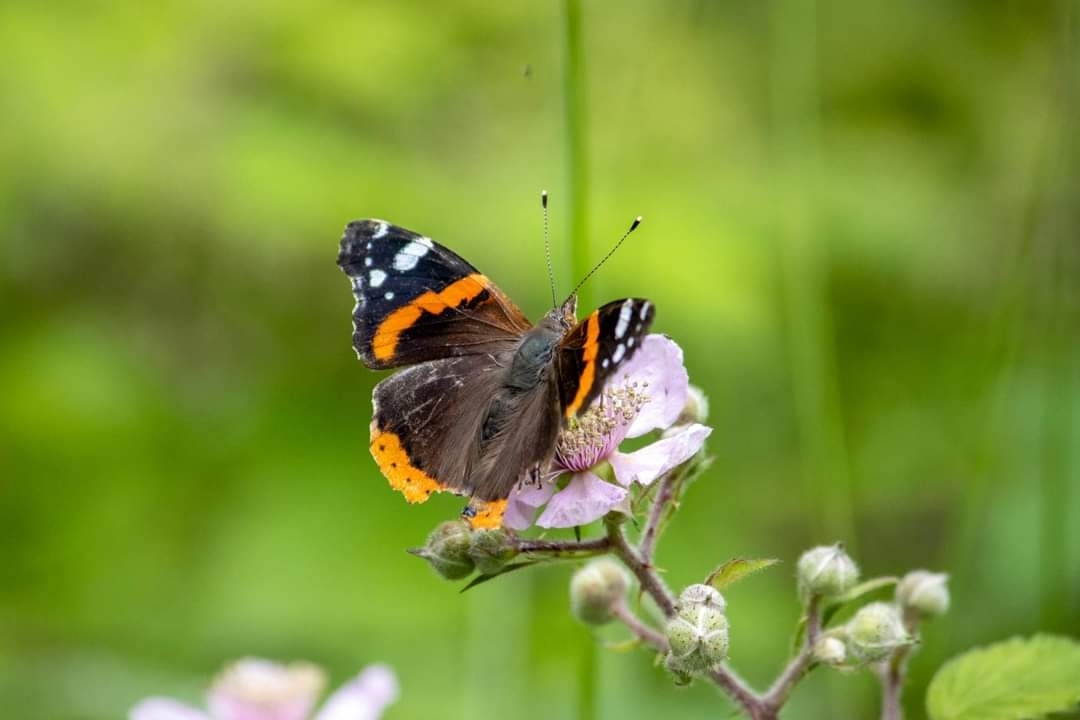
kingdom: Animalia
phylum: Arthropoda
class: Insecta
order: Lepidoptera
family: Nymphalidae
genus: Vanessa
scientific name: Vanessa atalanta
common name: Red admiral
